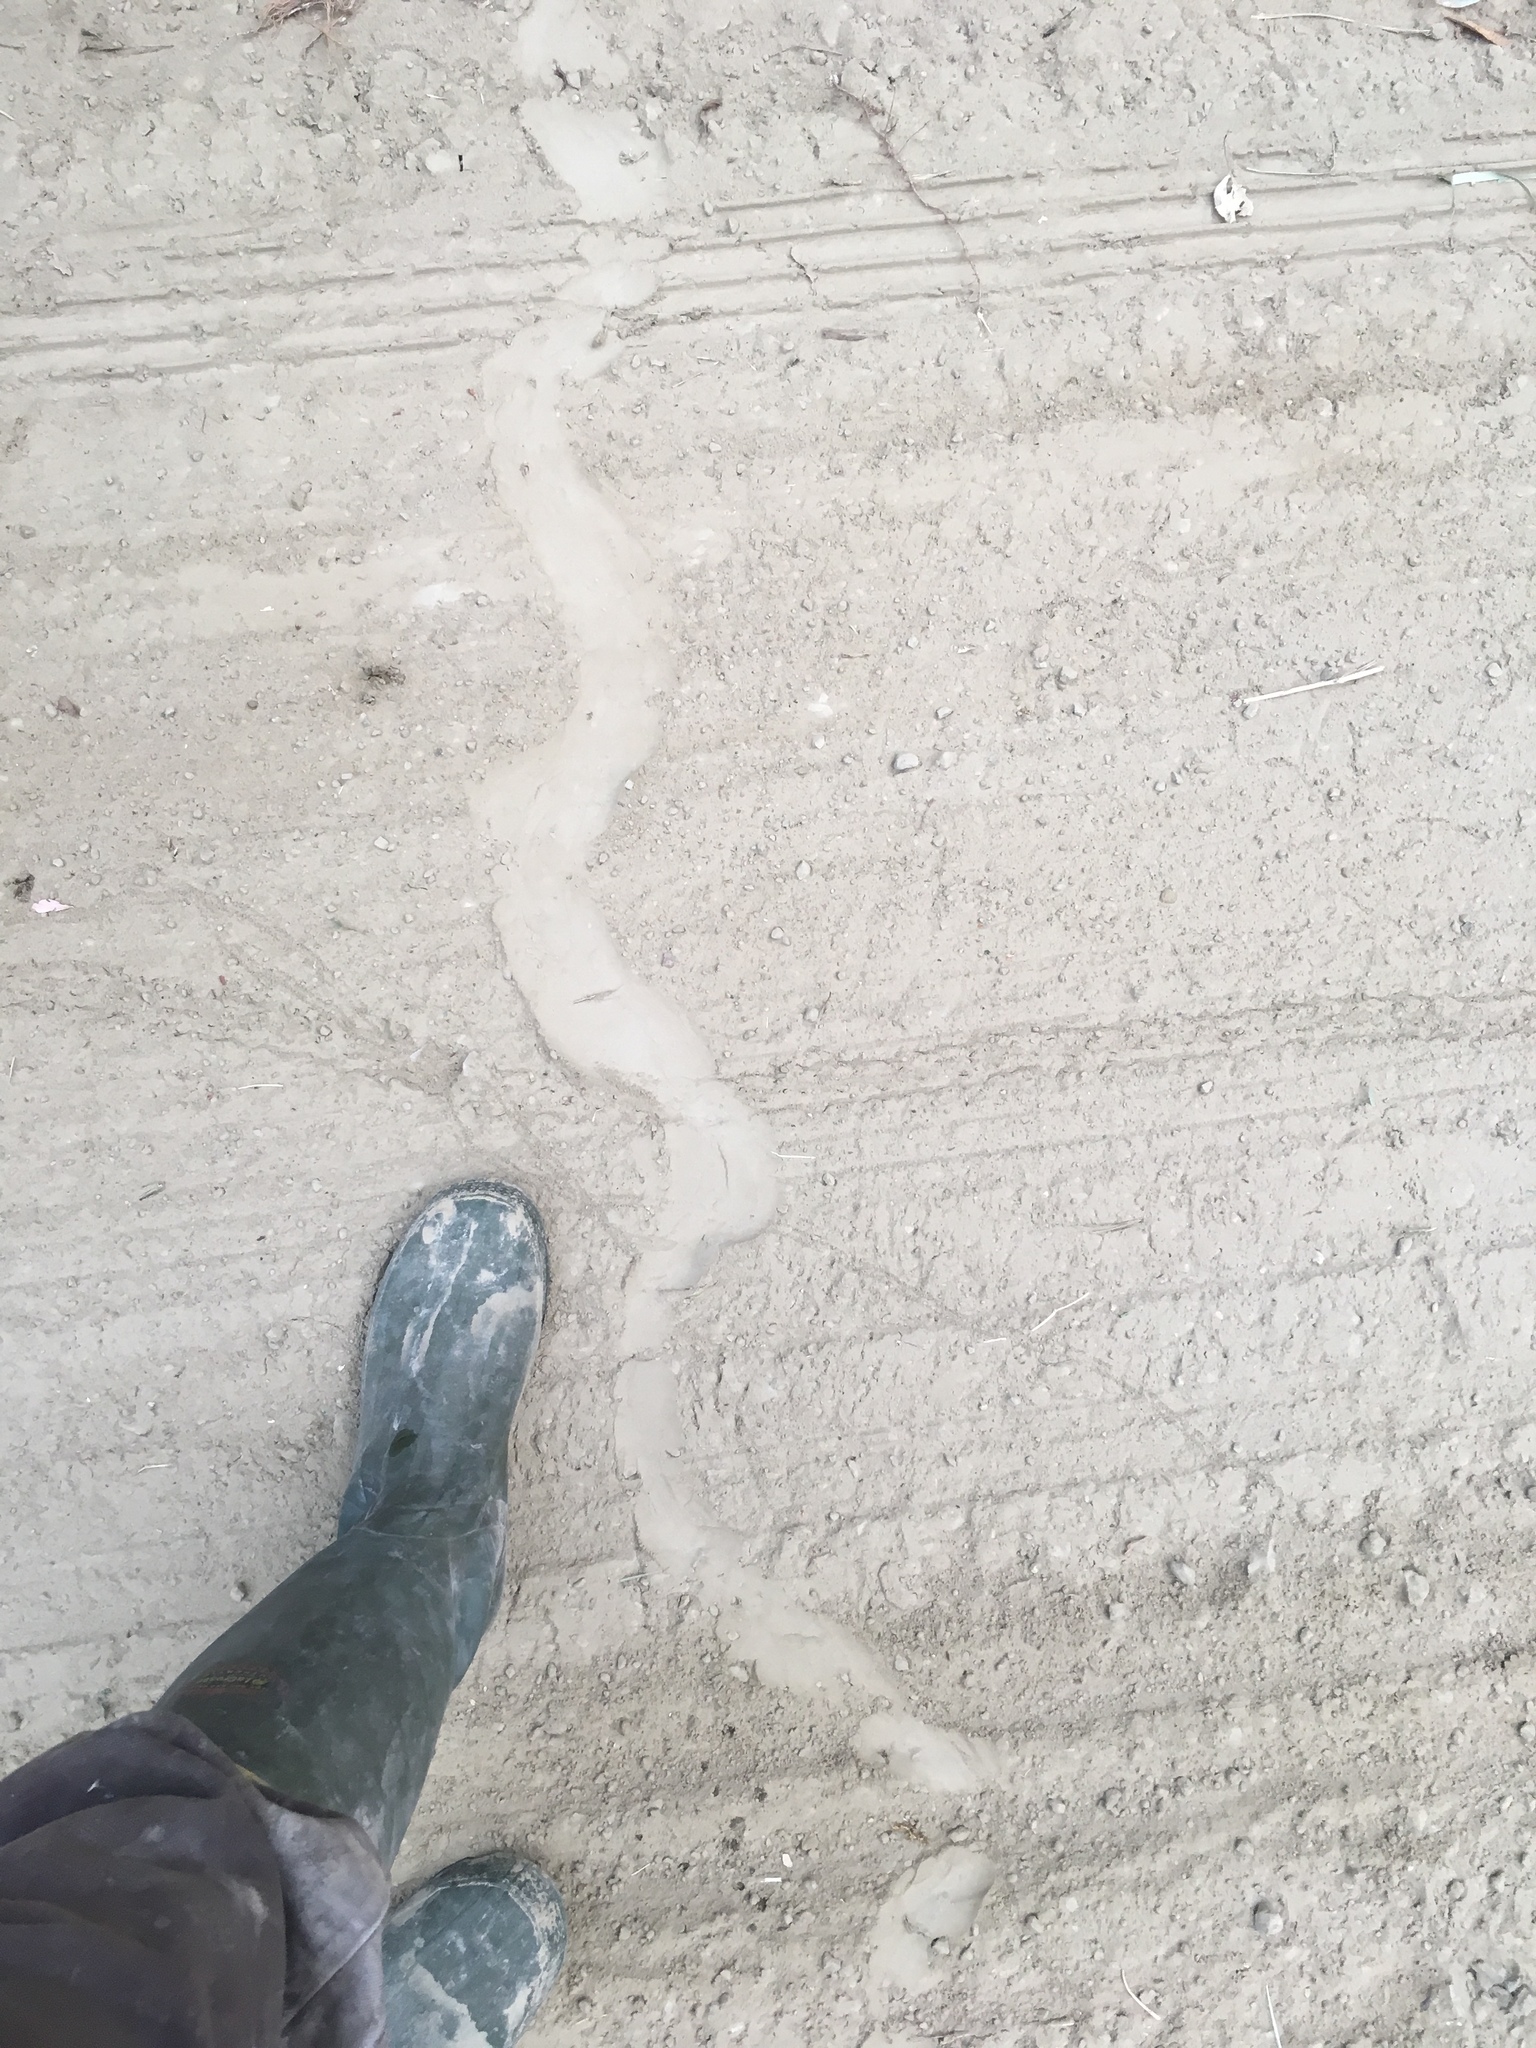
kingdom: Animalia
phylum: Chordata
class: Squamata
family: Viperidae
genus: Crotalus
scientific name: Crotalus oreganus
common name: Abyssus
